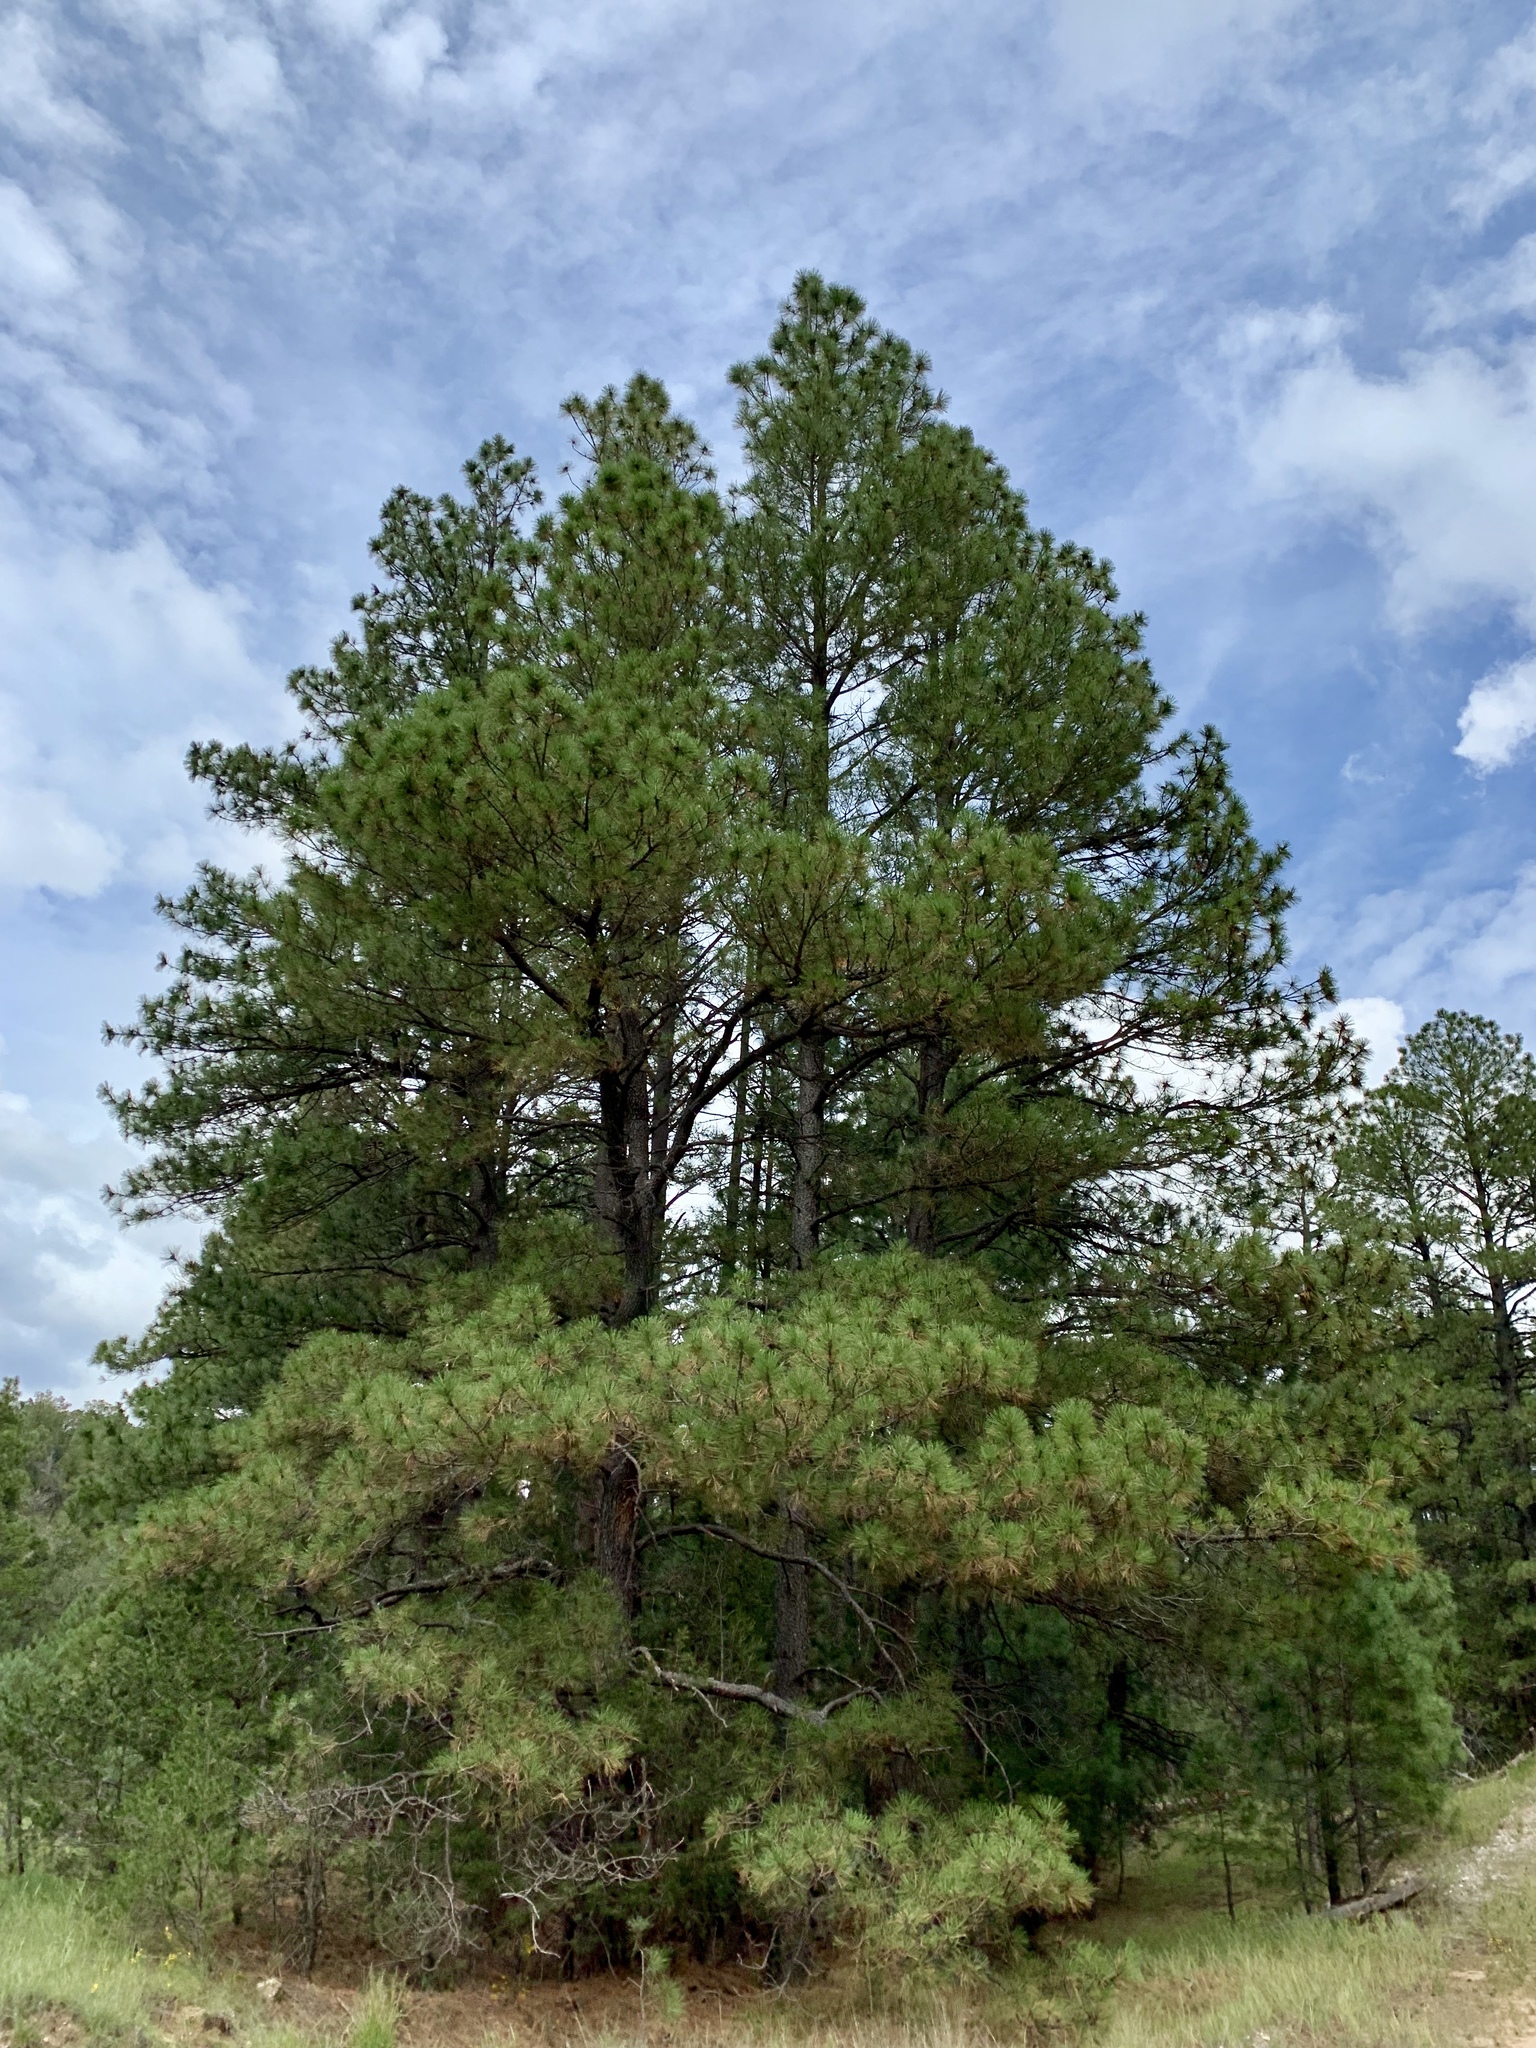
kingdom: Plantae
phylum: Tracheophyta
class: Pinopsida
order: Pinales
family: Pinaceae
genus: Pinus
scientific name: Pinus ponderosa
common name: Western yellow-pine
